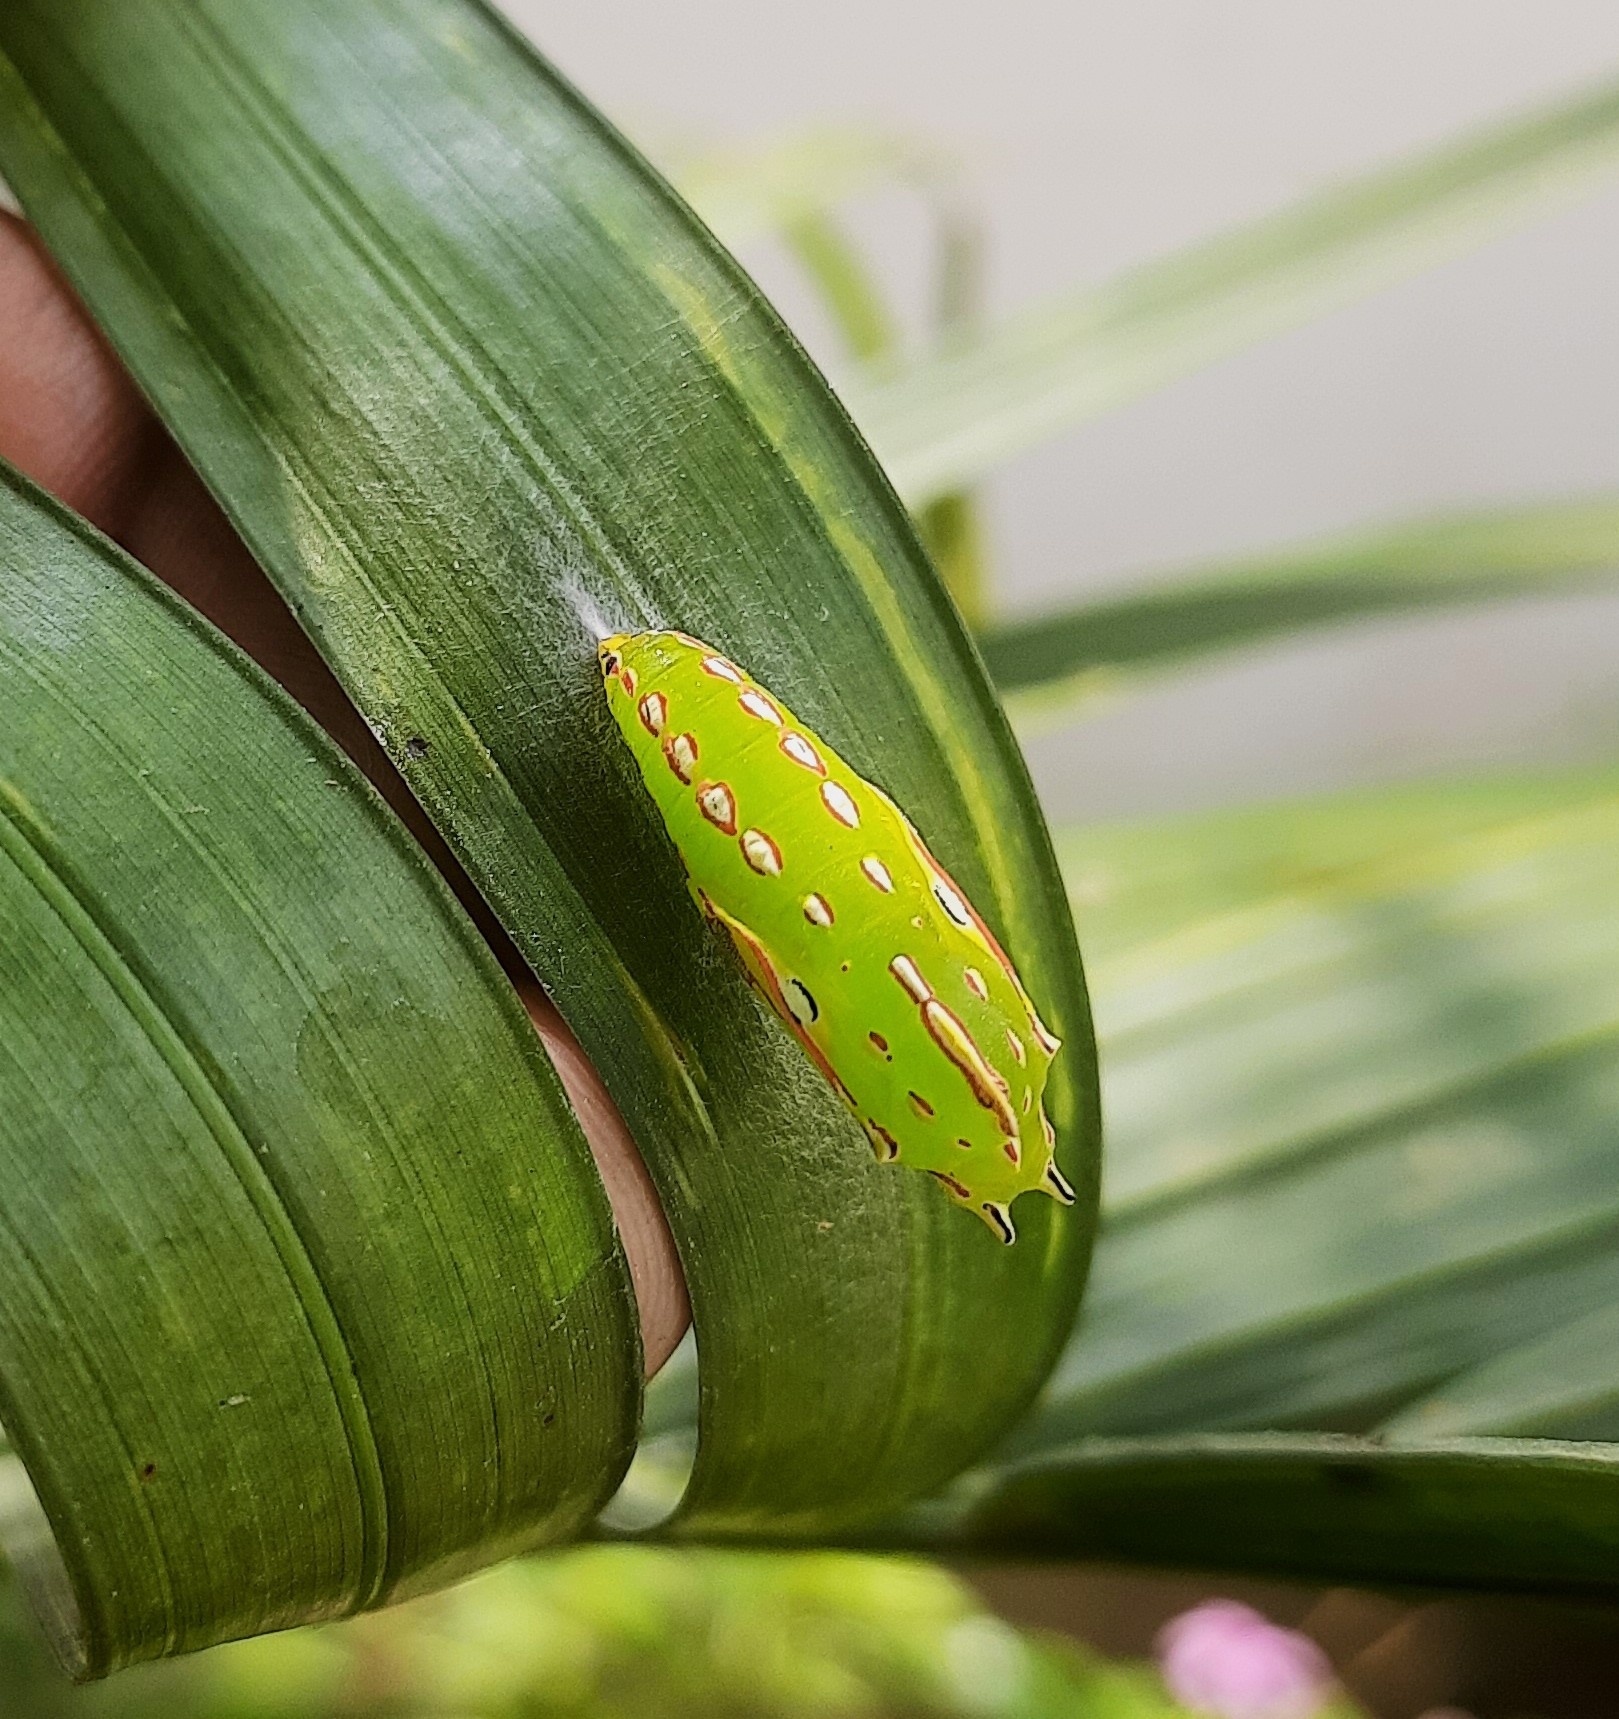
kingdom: Animalia
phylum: Arthropoda
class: Insecta
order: Lepidoptera
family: Nymphalidae
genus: Elymnias
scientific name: Elymnias caudata
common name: Tailed palmfly
